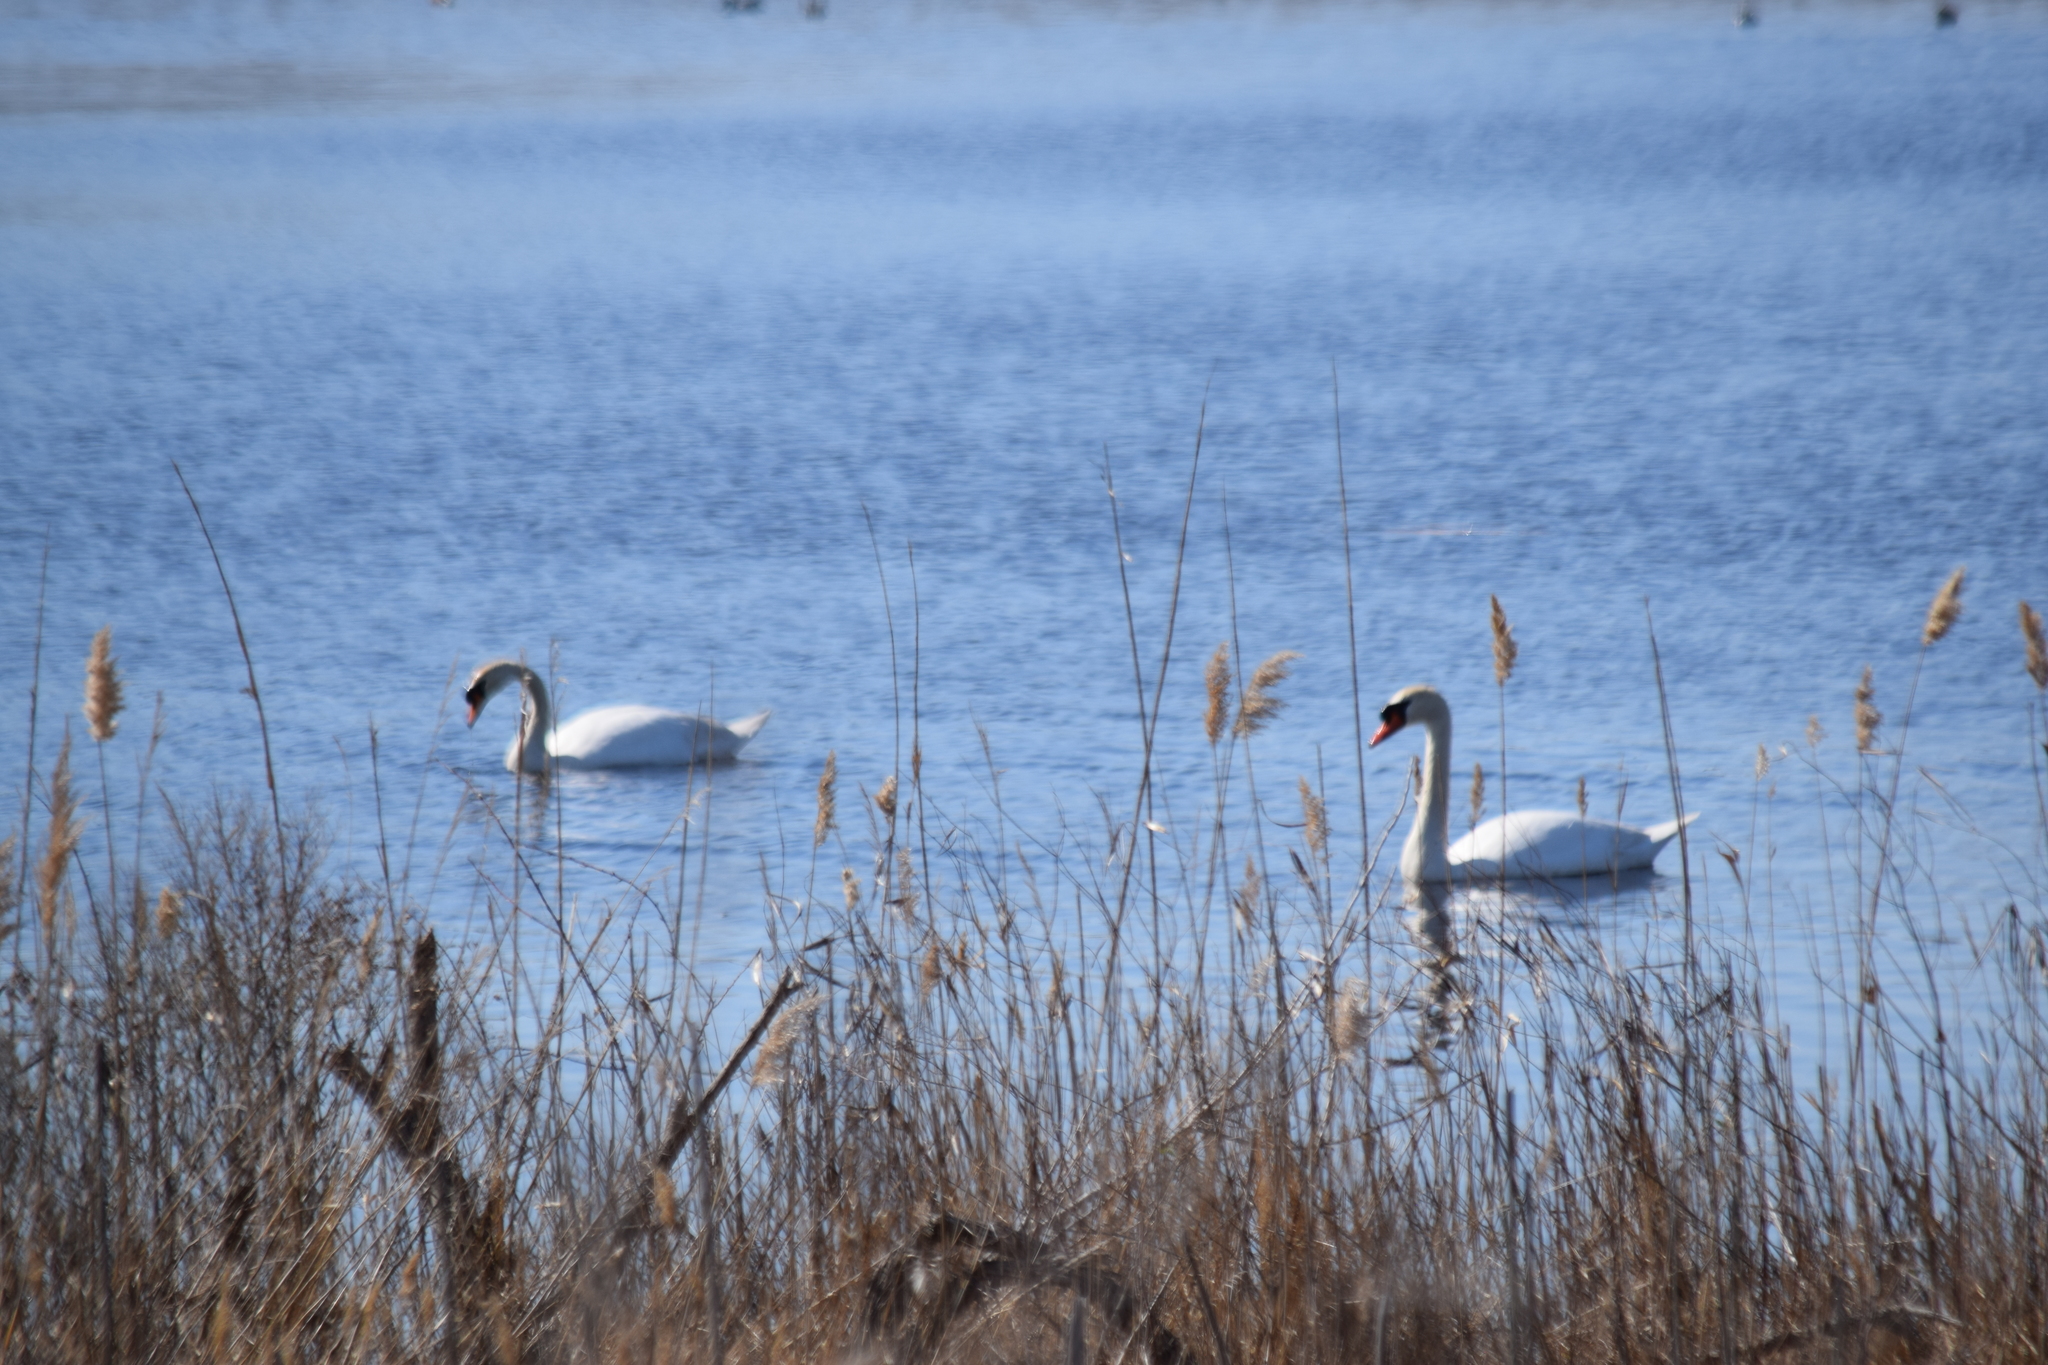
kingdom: Animalia
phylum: Chordata
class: Aves
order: Anseriformes
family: Anatidae
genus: Cygnus
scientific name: Cygnus olor
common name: Mute swan
